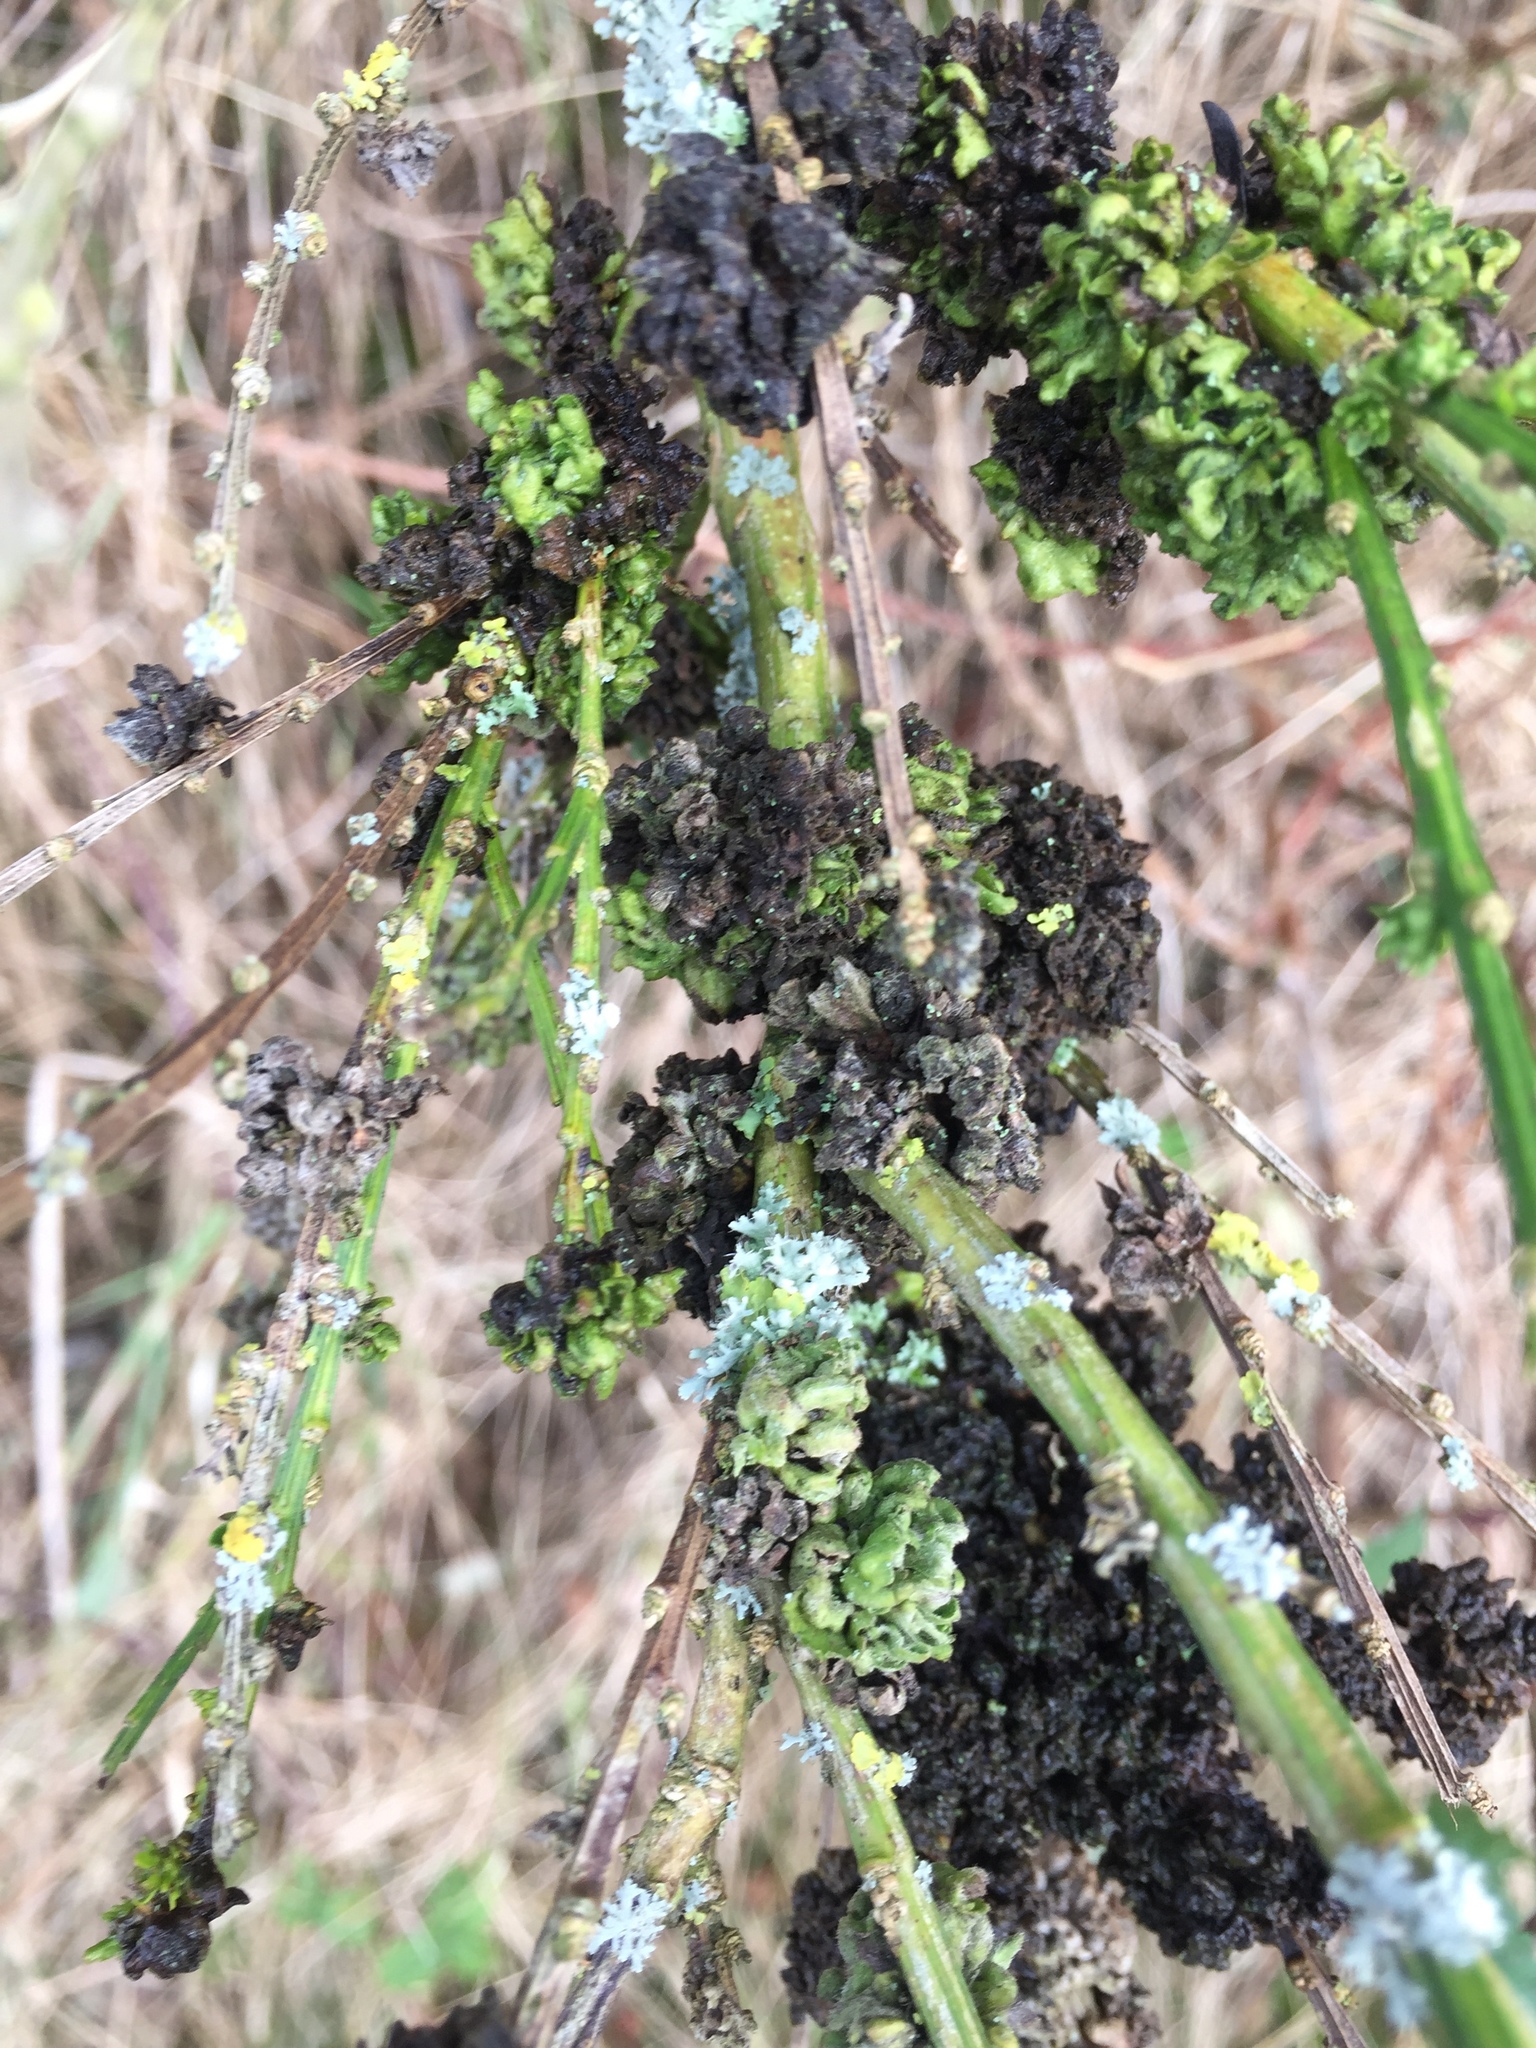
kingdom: Animalia
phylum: Arthropoda
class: Arachnida
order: Trombidiformes
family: Eriophyidae
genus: Aceria
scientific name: Aceria genistae
